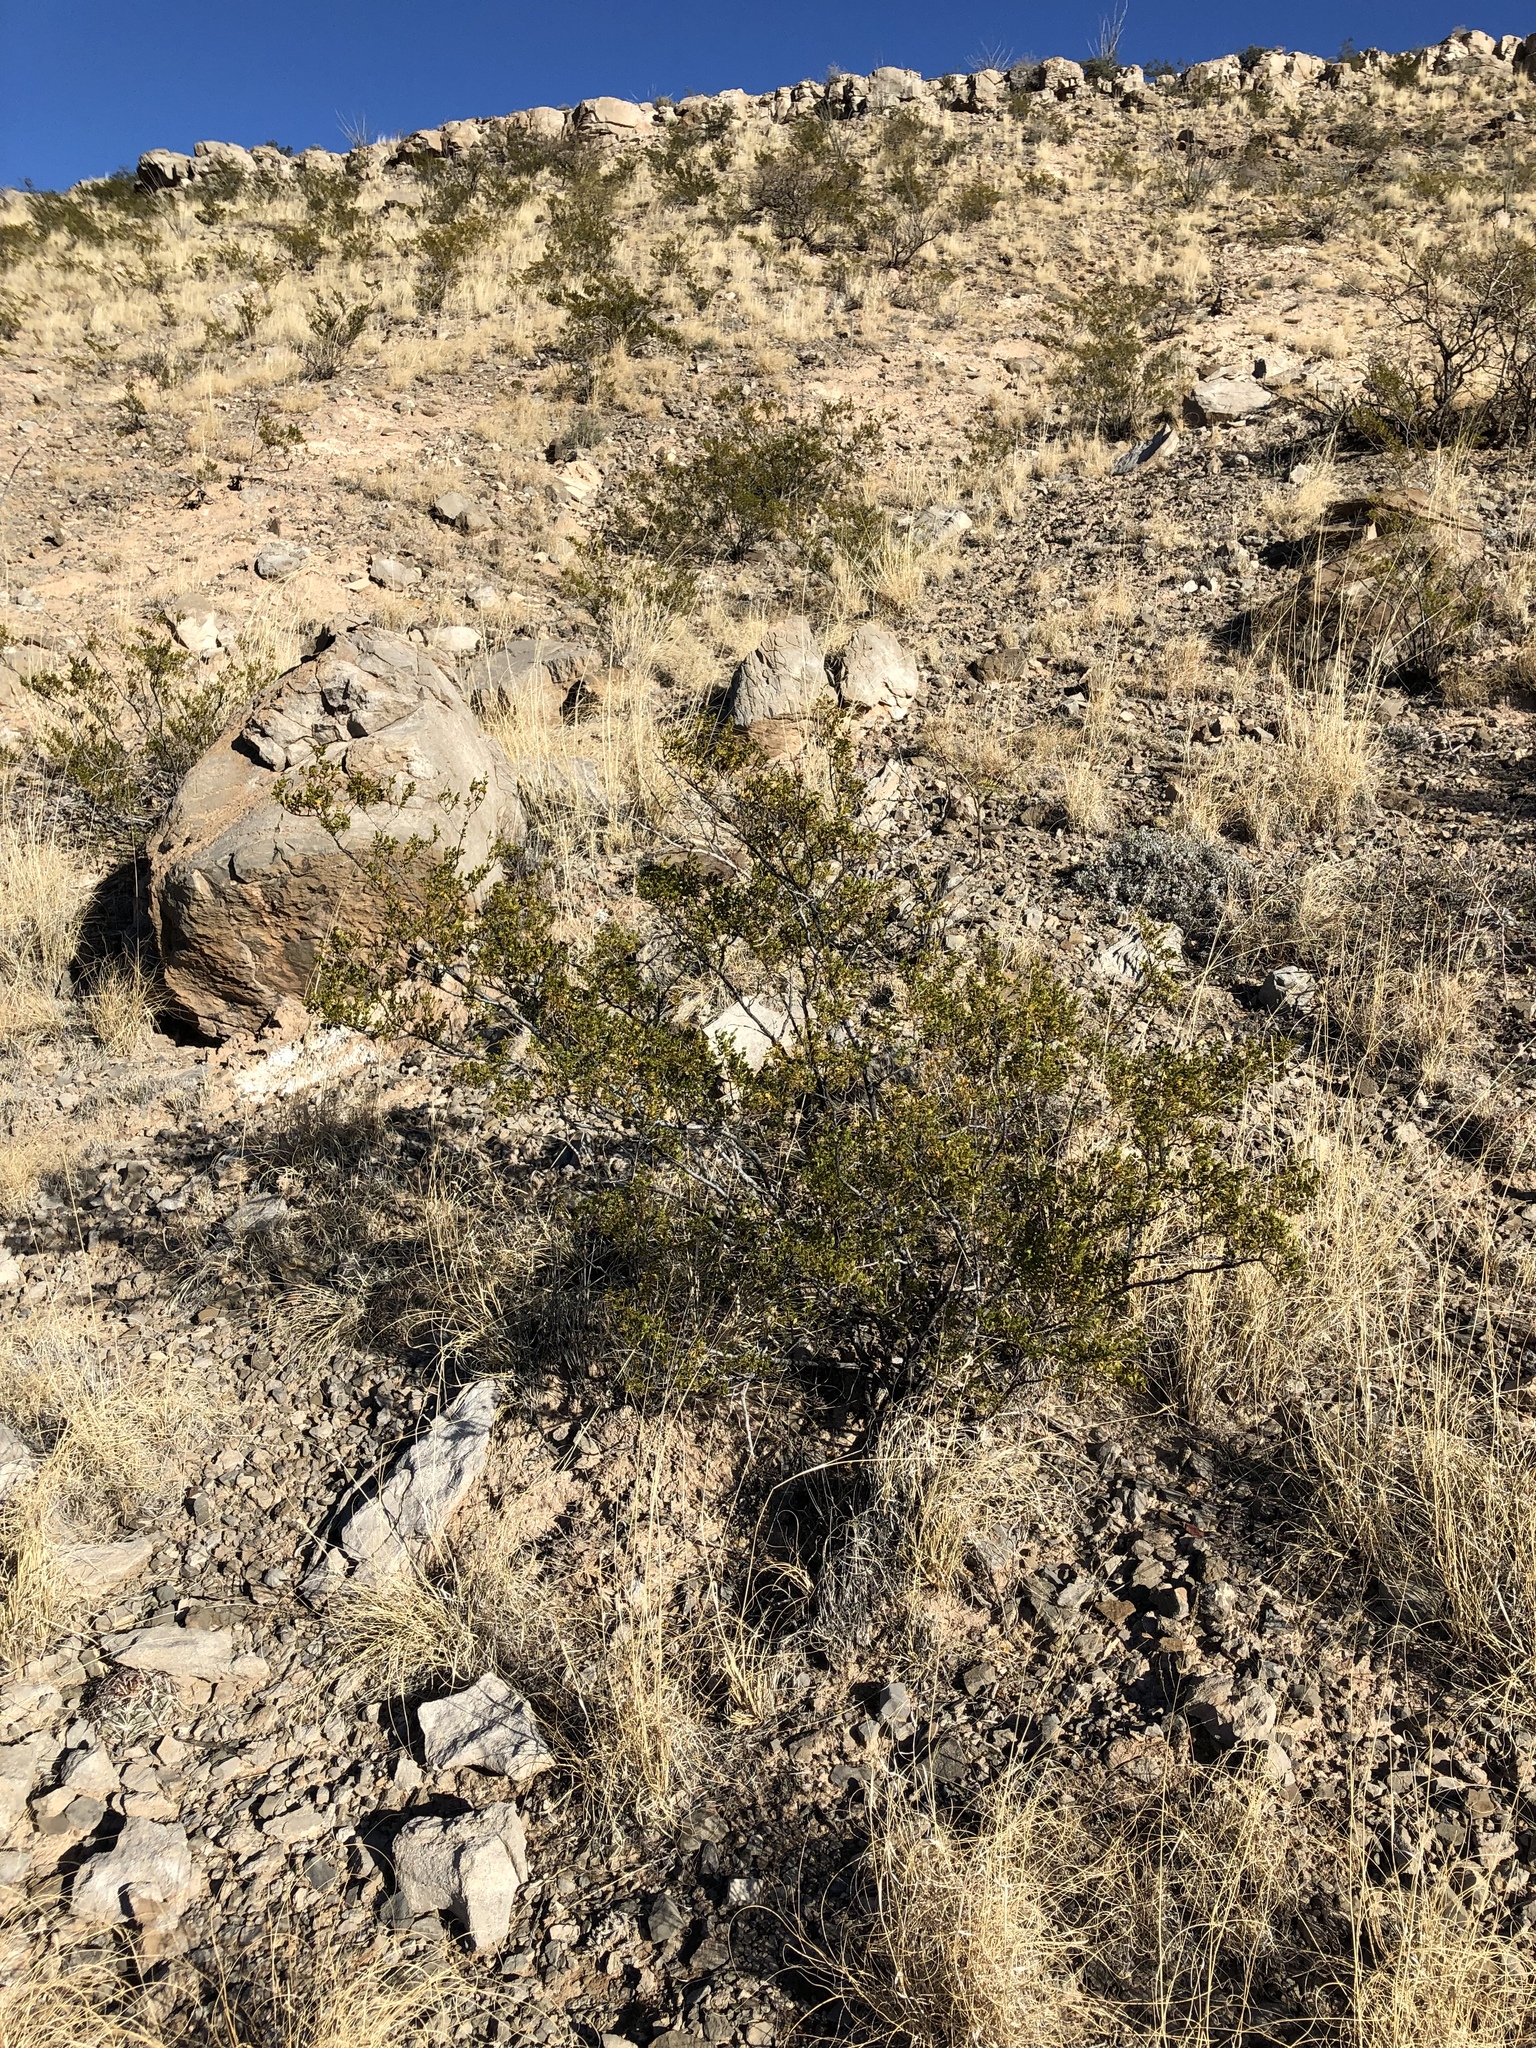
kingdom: Plantae
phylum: Tracheophyta
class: Magnoliopsida
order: Zygophyllales
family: Zygophyllaceae
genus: Larrea
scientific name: Larrea tridentata
